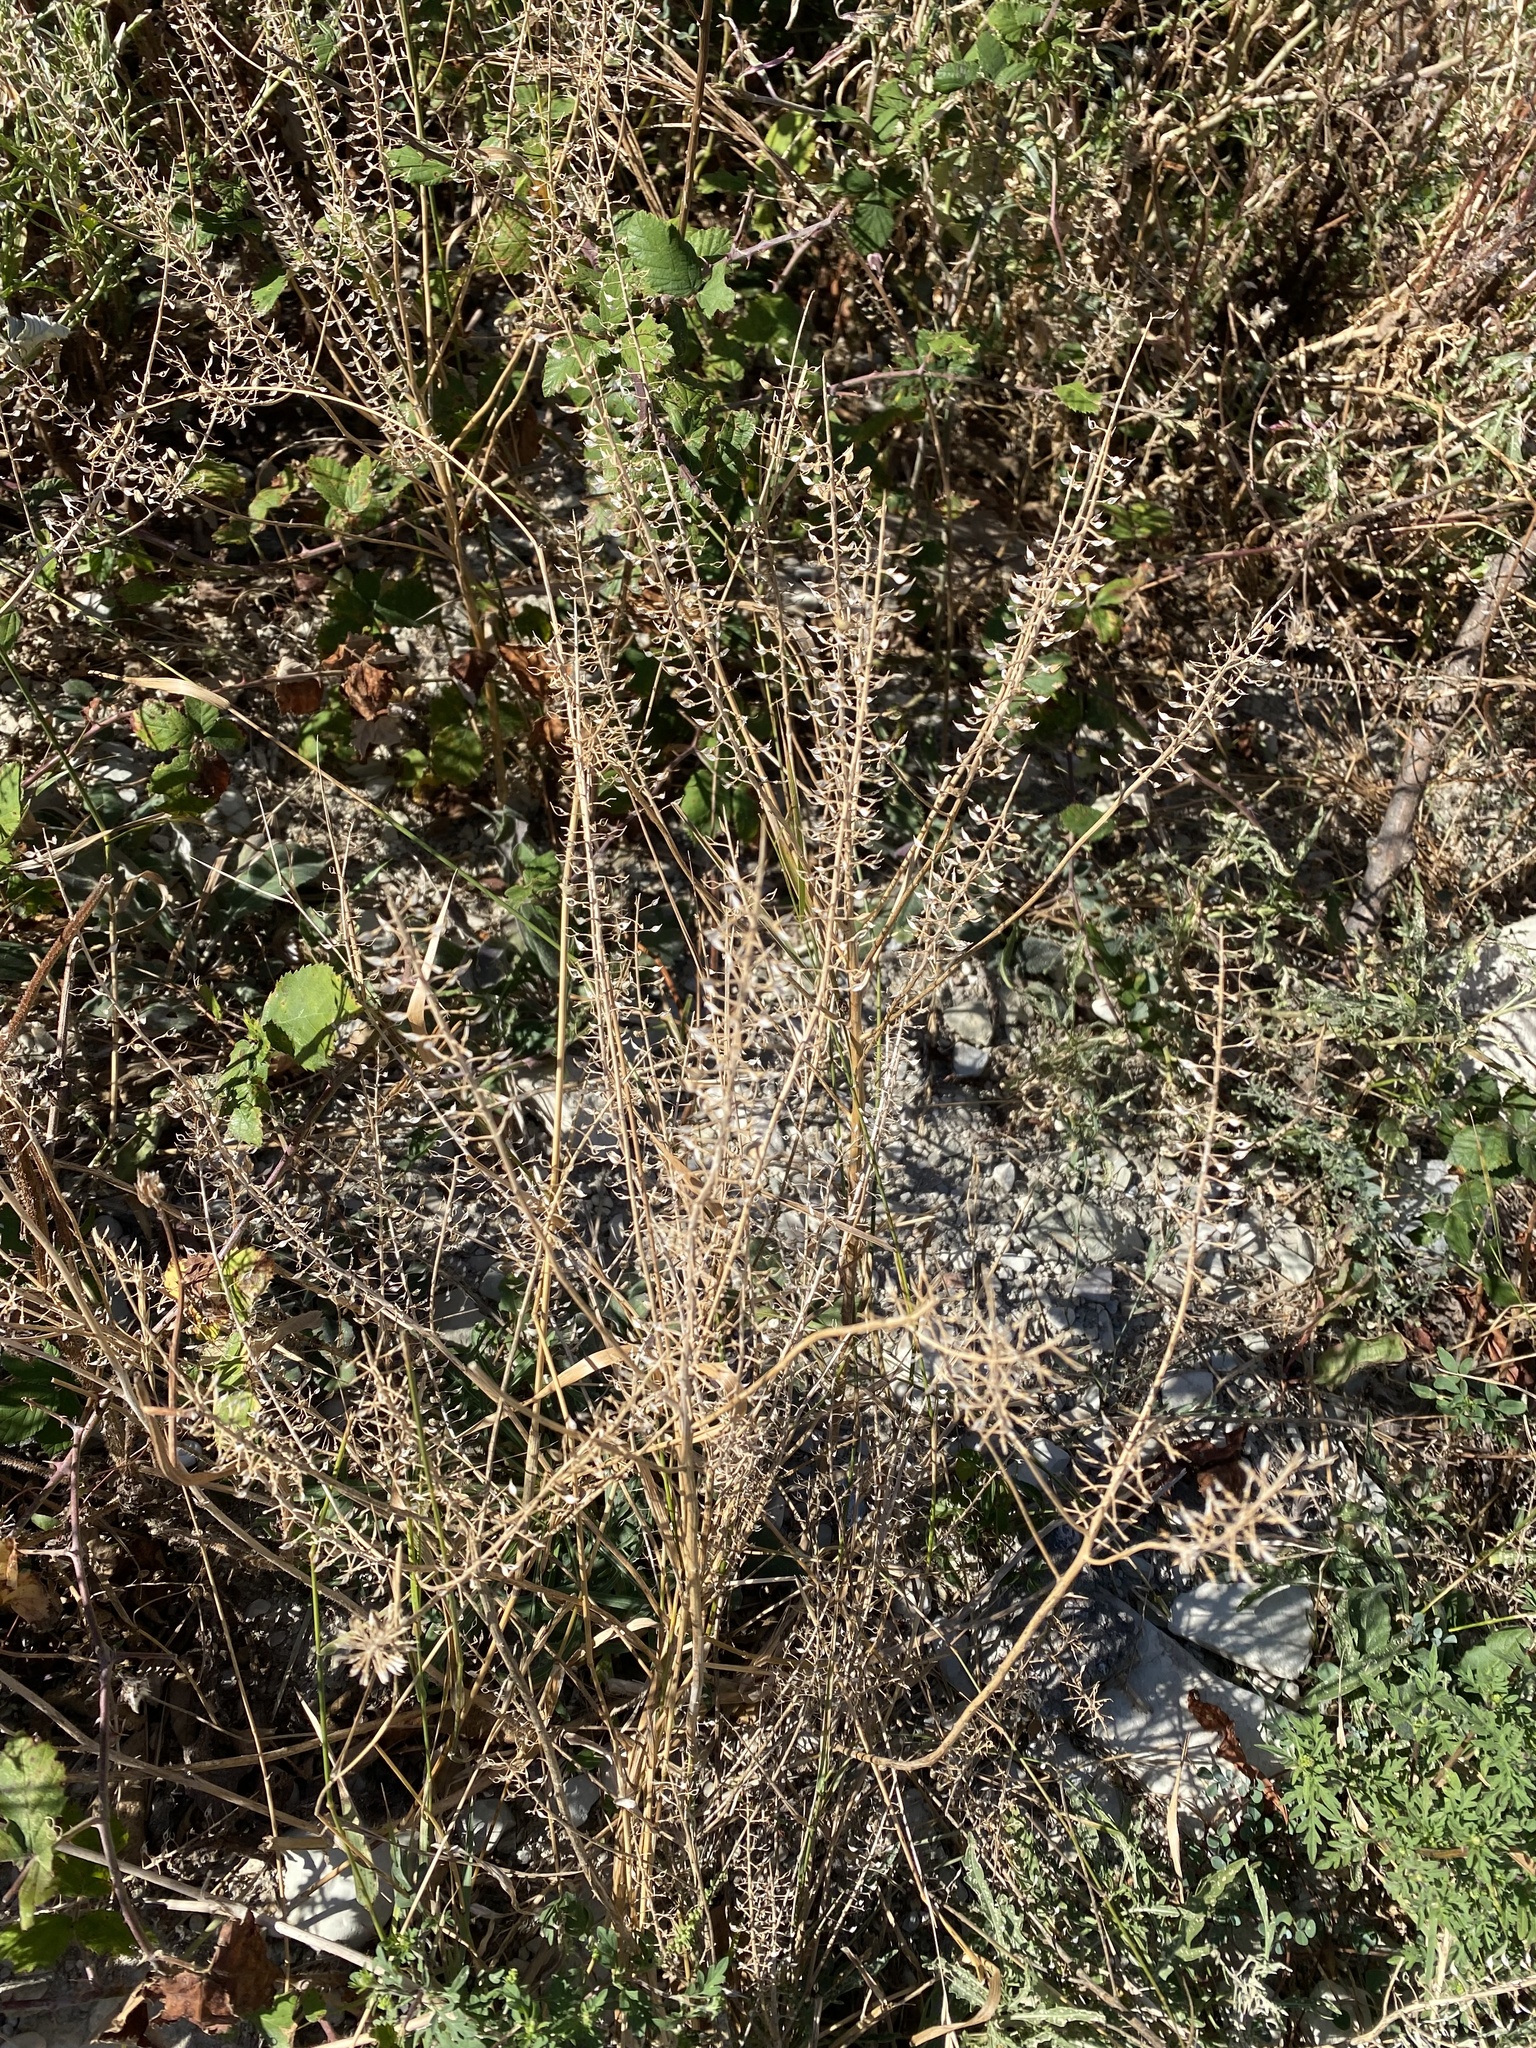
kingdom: Plantae
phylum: Tracheophyta
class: Magnoliopsida
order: Brassicales
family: Brassicaceae
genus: Lepidium
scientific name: Lepidium campestre
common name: Field pepperwort
